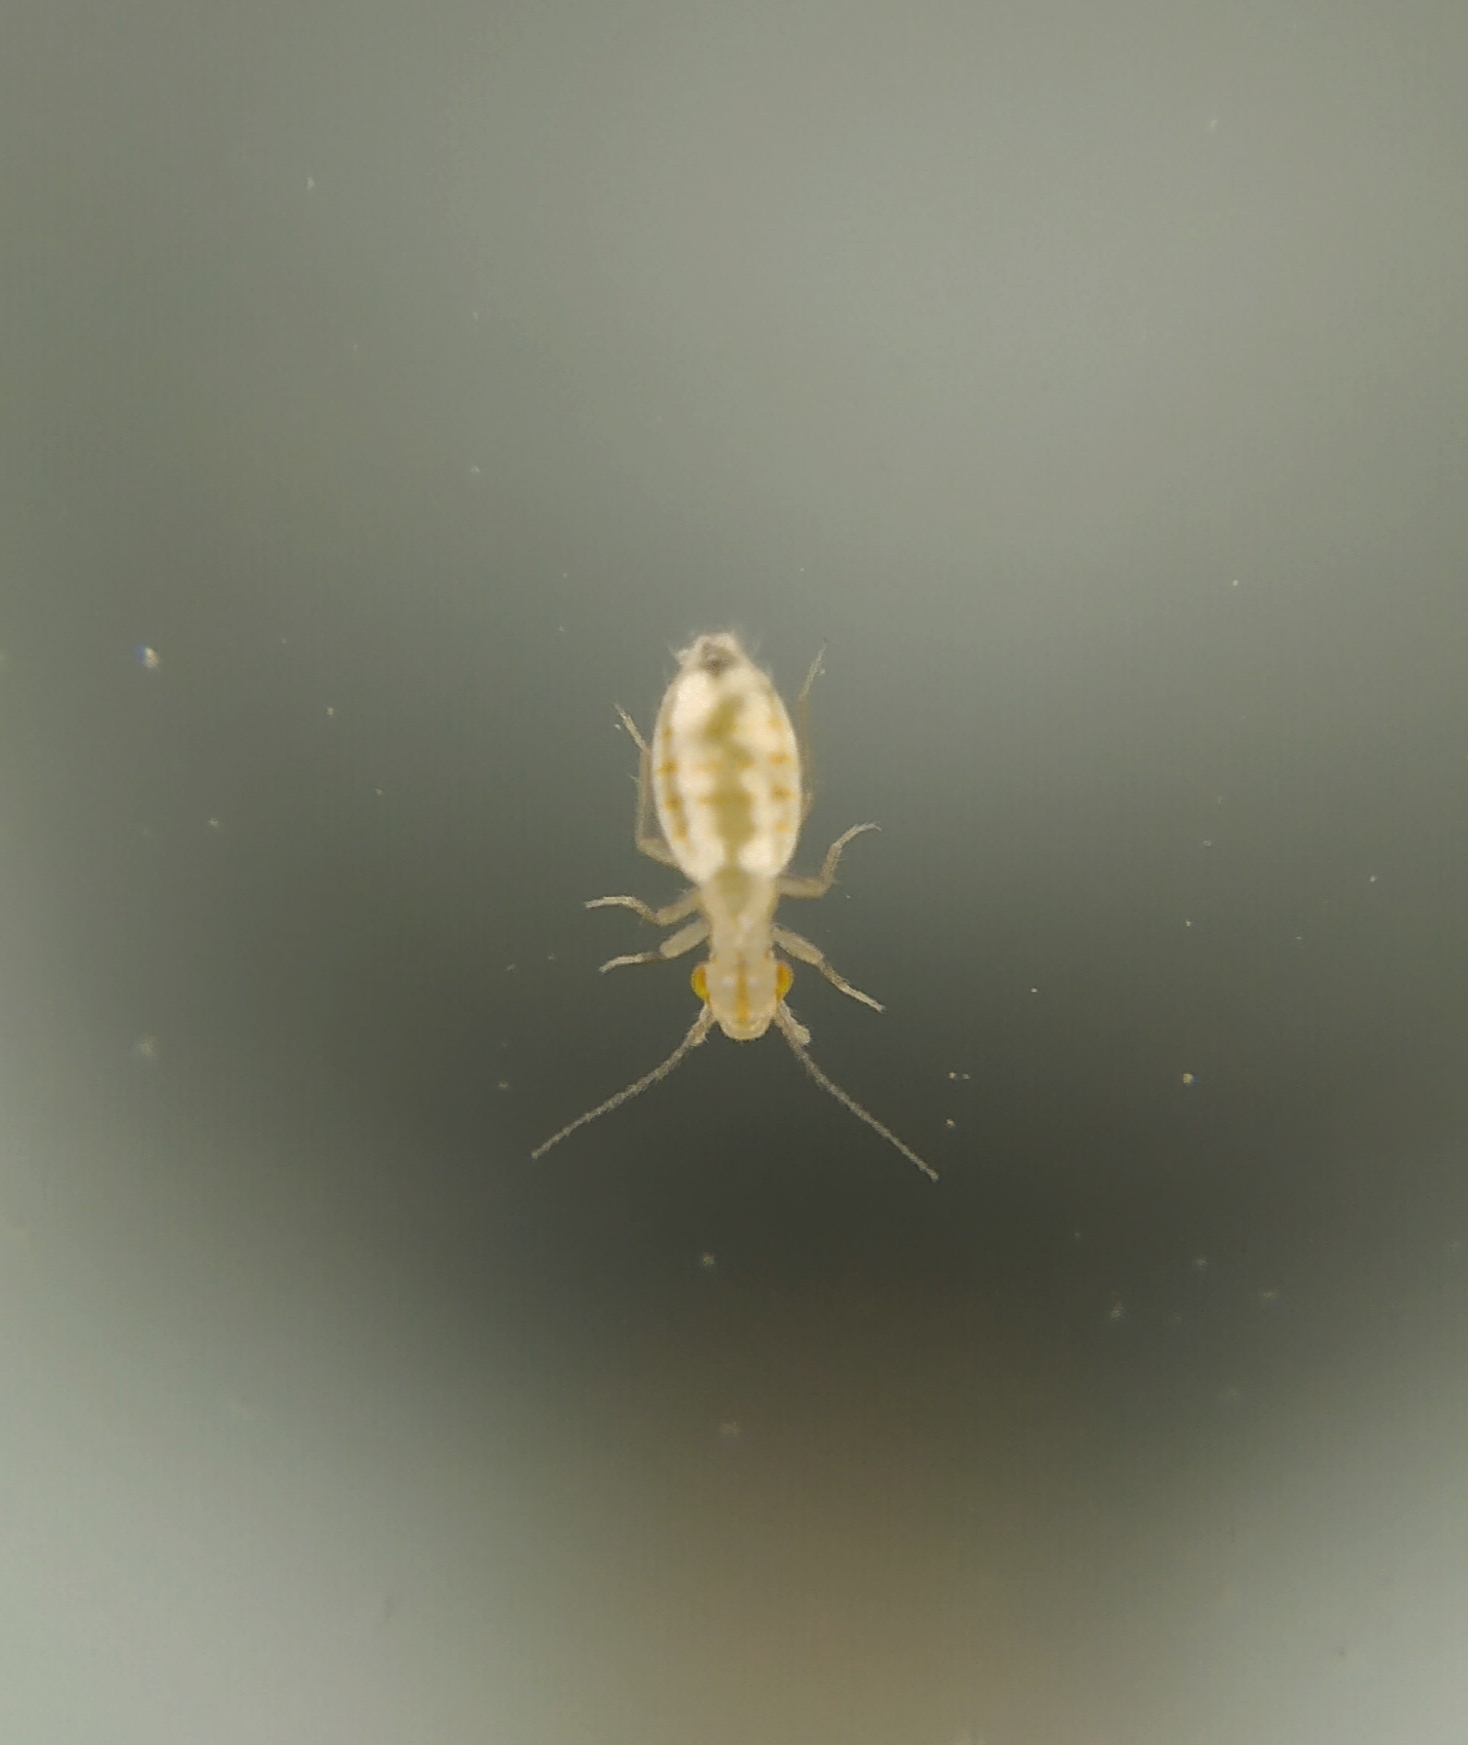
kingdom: Animalia
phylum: Arthropoda
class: Insecta
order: Psocodea
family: Trogiidae
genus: Trogium
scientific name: Trogium pulsatorium
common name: Granary book louse
